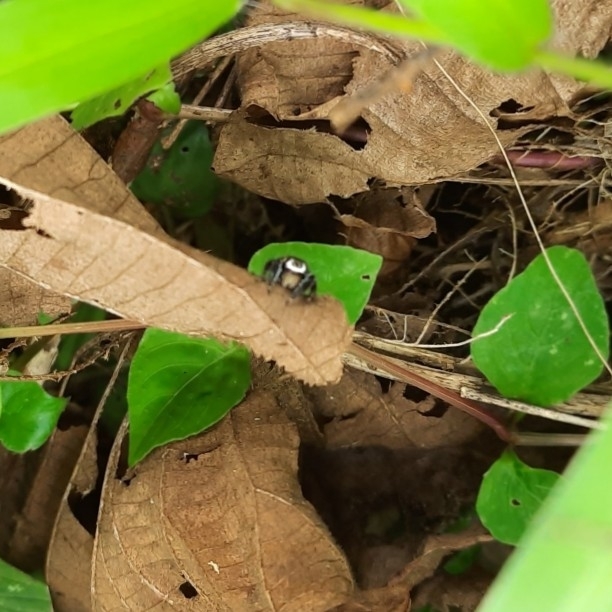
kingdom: Animalia
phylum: Arthropoda
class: Arachnida
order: Araneae
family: Salticidae
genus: Hyllus
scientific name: Hyllus manu
